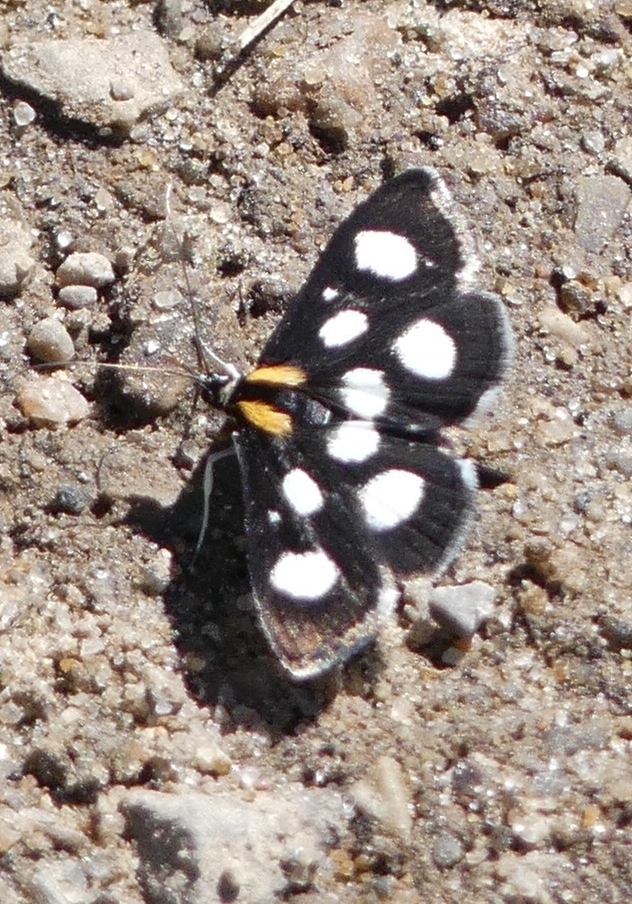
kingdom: Animalia
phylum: Arthropoda
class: Insecta
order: Lepidoptera
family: Crambidae
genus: Anania
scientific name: Anania funebris
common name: White-spotted sable moth
